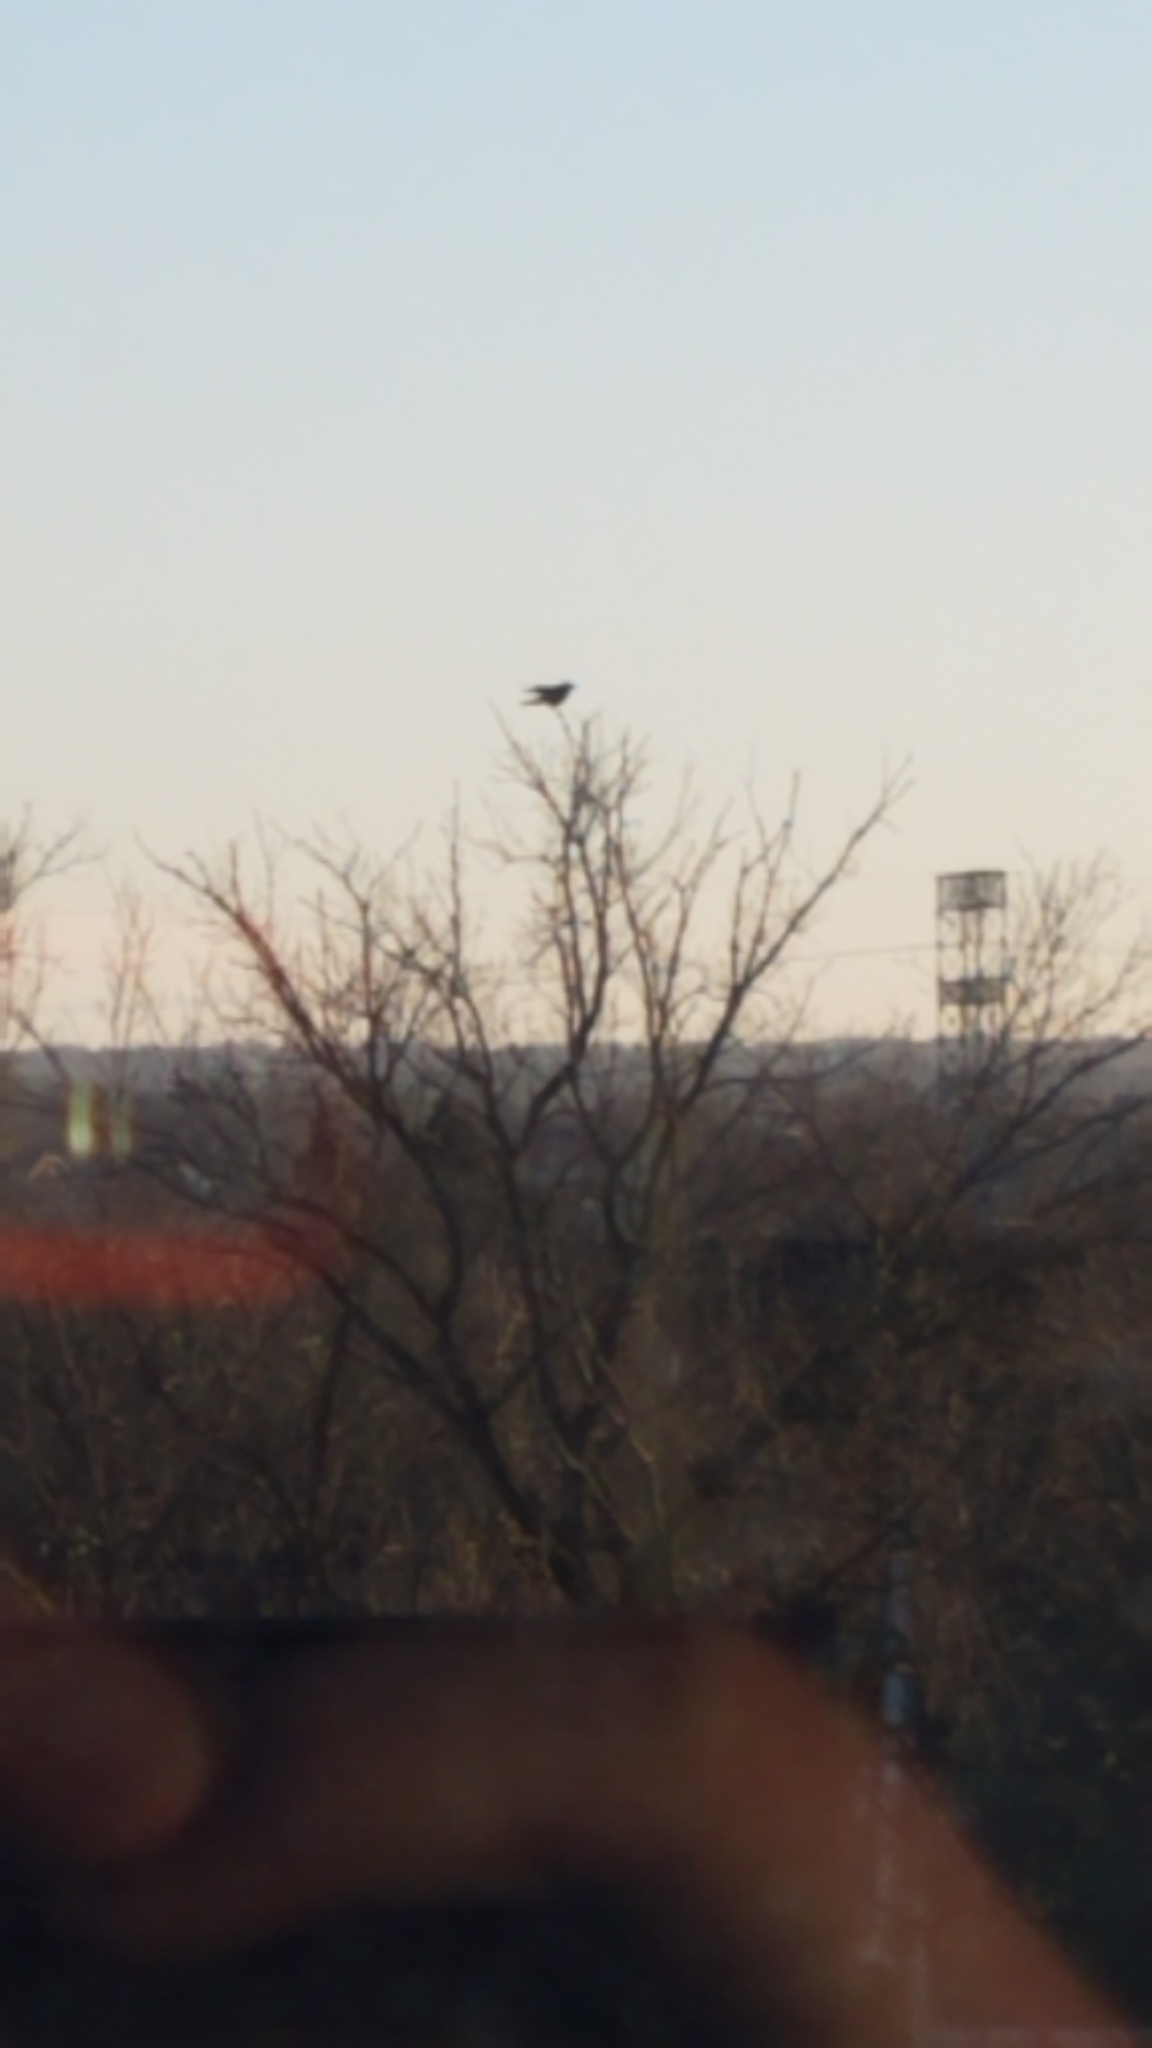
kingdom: Animalia
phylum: Chordata
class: Aves
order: Passeriformes
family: Corvidae
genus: Corvus
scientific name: Corvus brachyrhynchos
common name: American crow
